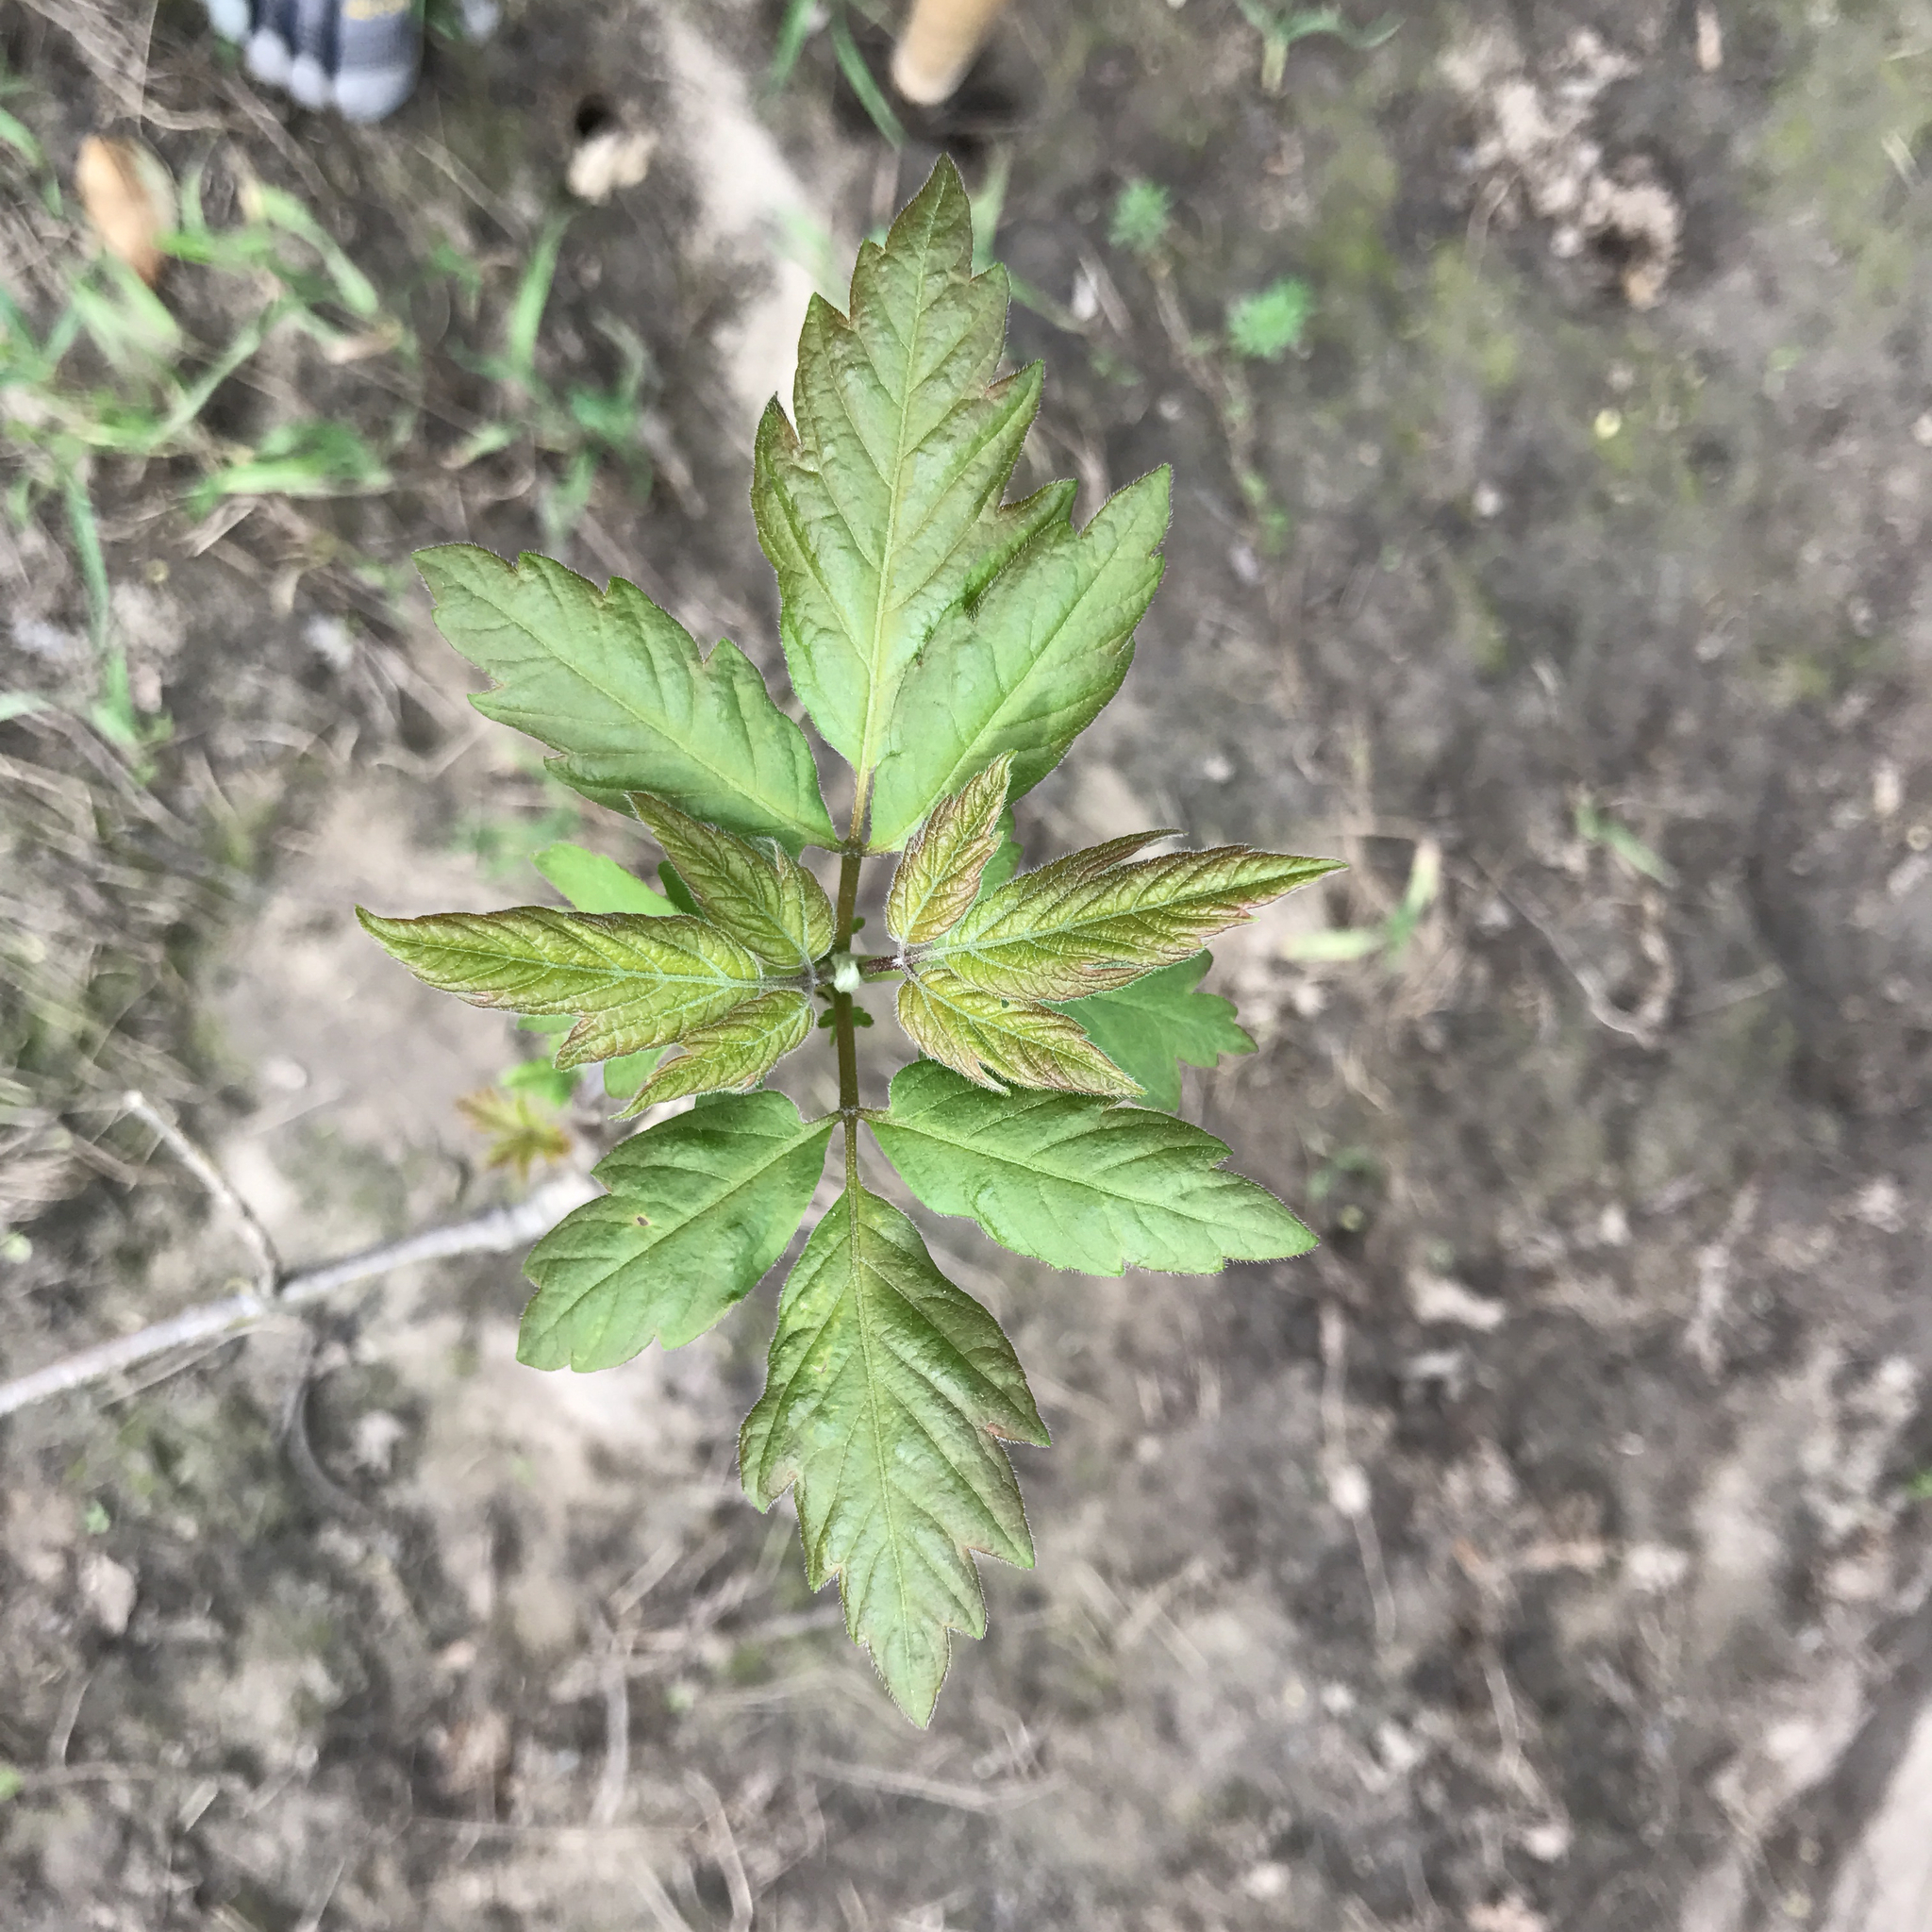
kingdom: Plantae
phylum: Tracheophyta
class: Magnoliopsida
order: Sapindales
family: Sapindaceae
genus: Acer
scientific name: Acer negundo
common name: Ashleaf maple
